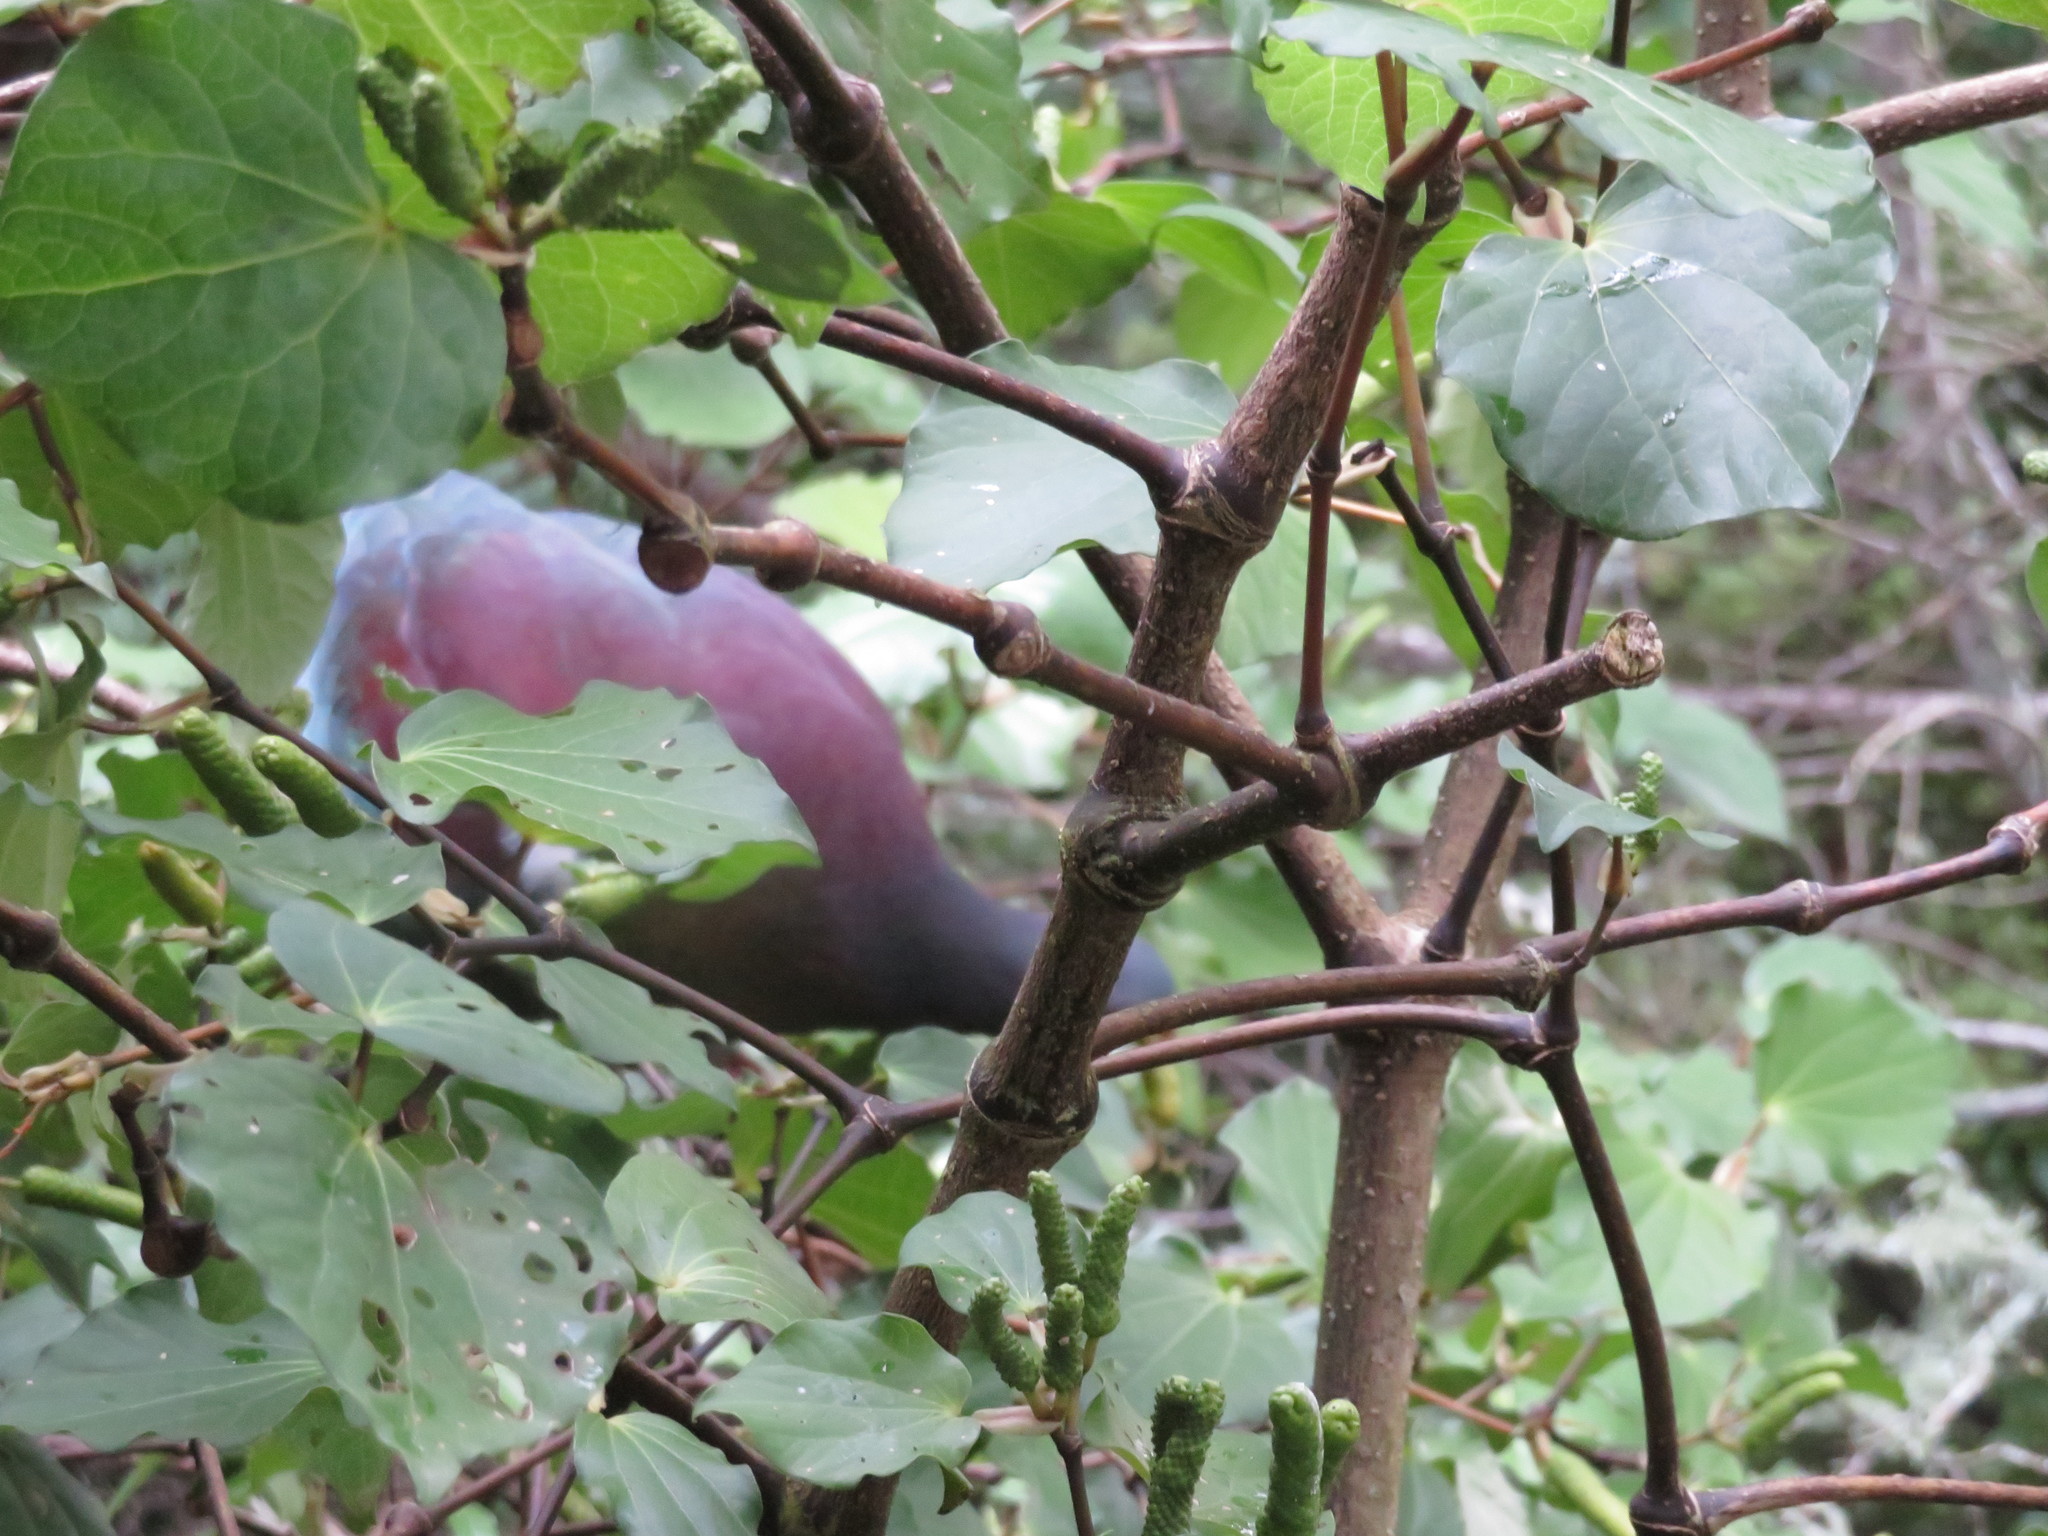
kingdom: Animalia
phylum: Chordata
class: Aves
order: Columbiformes
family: Columbidae
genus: Hemiphaga
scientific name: Hemiphaga novaeseelandiae
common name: New zealand pigeon
